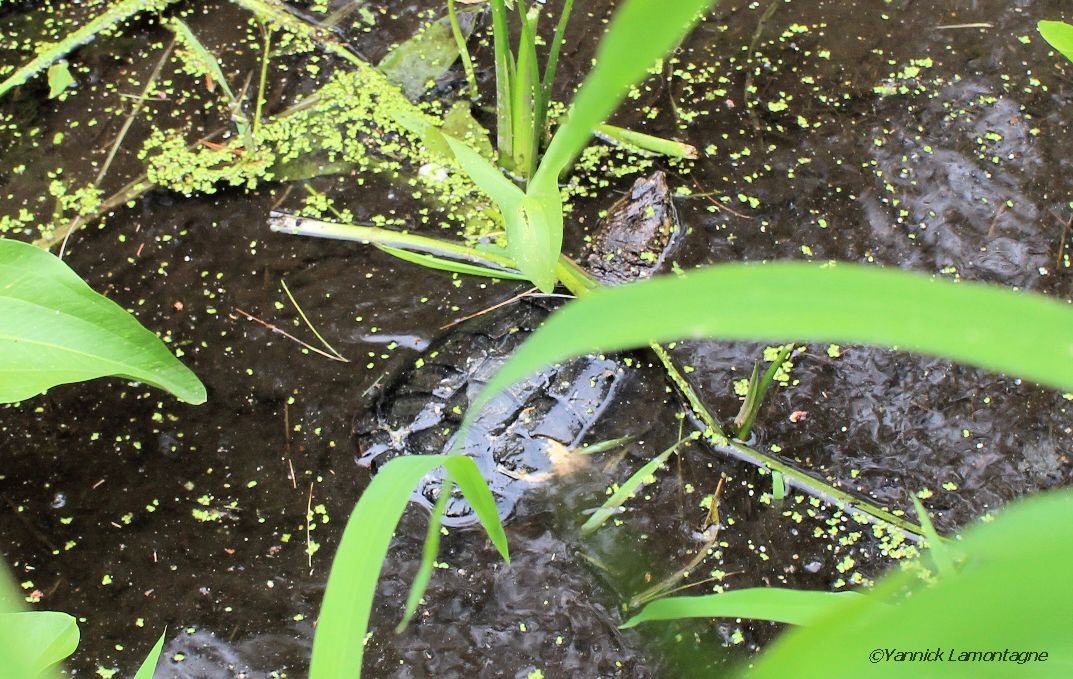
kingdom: Animalia
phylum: Chordata
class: Testudines
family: Chelydridae
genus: Chelydra
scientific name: Chelydra serpentina
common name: Common snapping turtle
